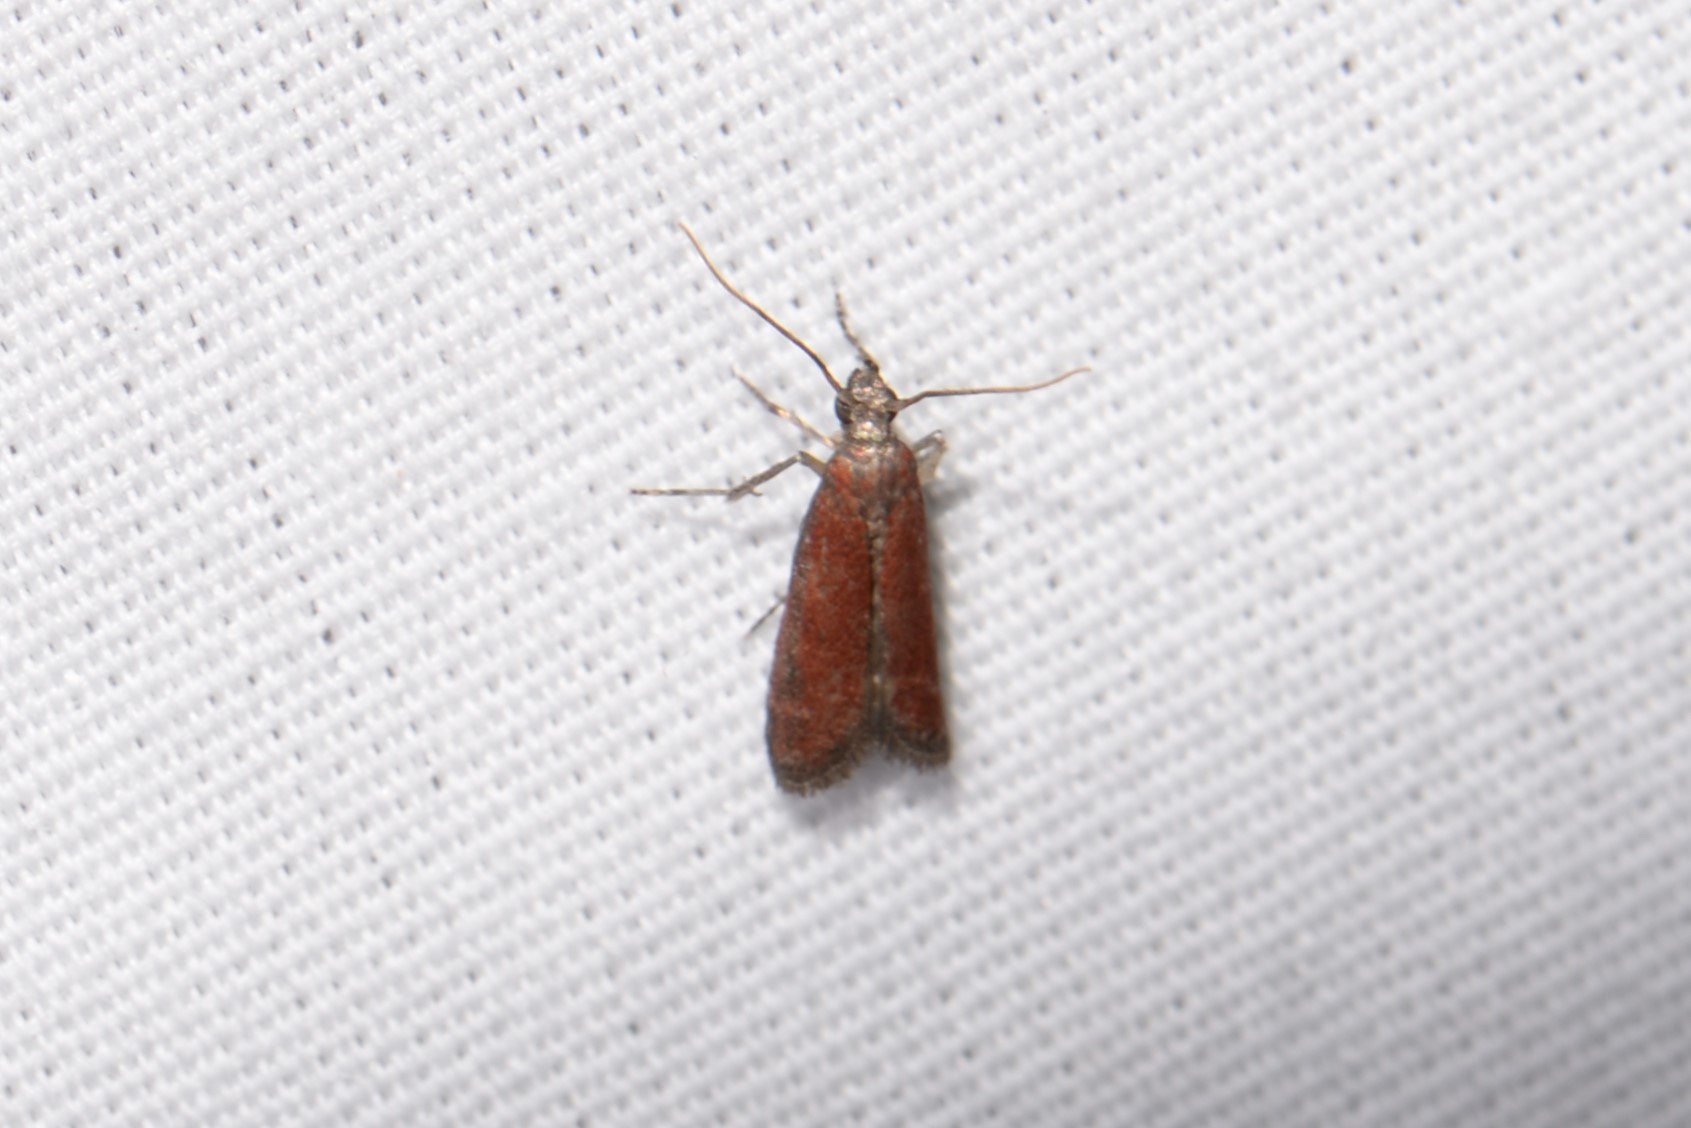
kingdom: Animalia
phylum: Arthropoda
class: Insecta
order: Lepidoptera
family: Pyralidae
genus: Varneria
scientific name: Varneria postremella
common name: Rusty varneria moth
